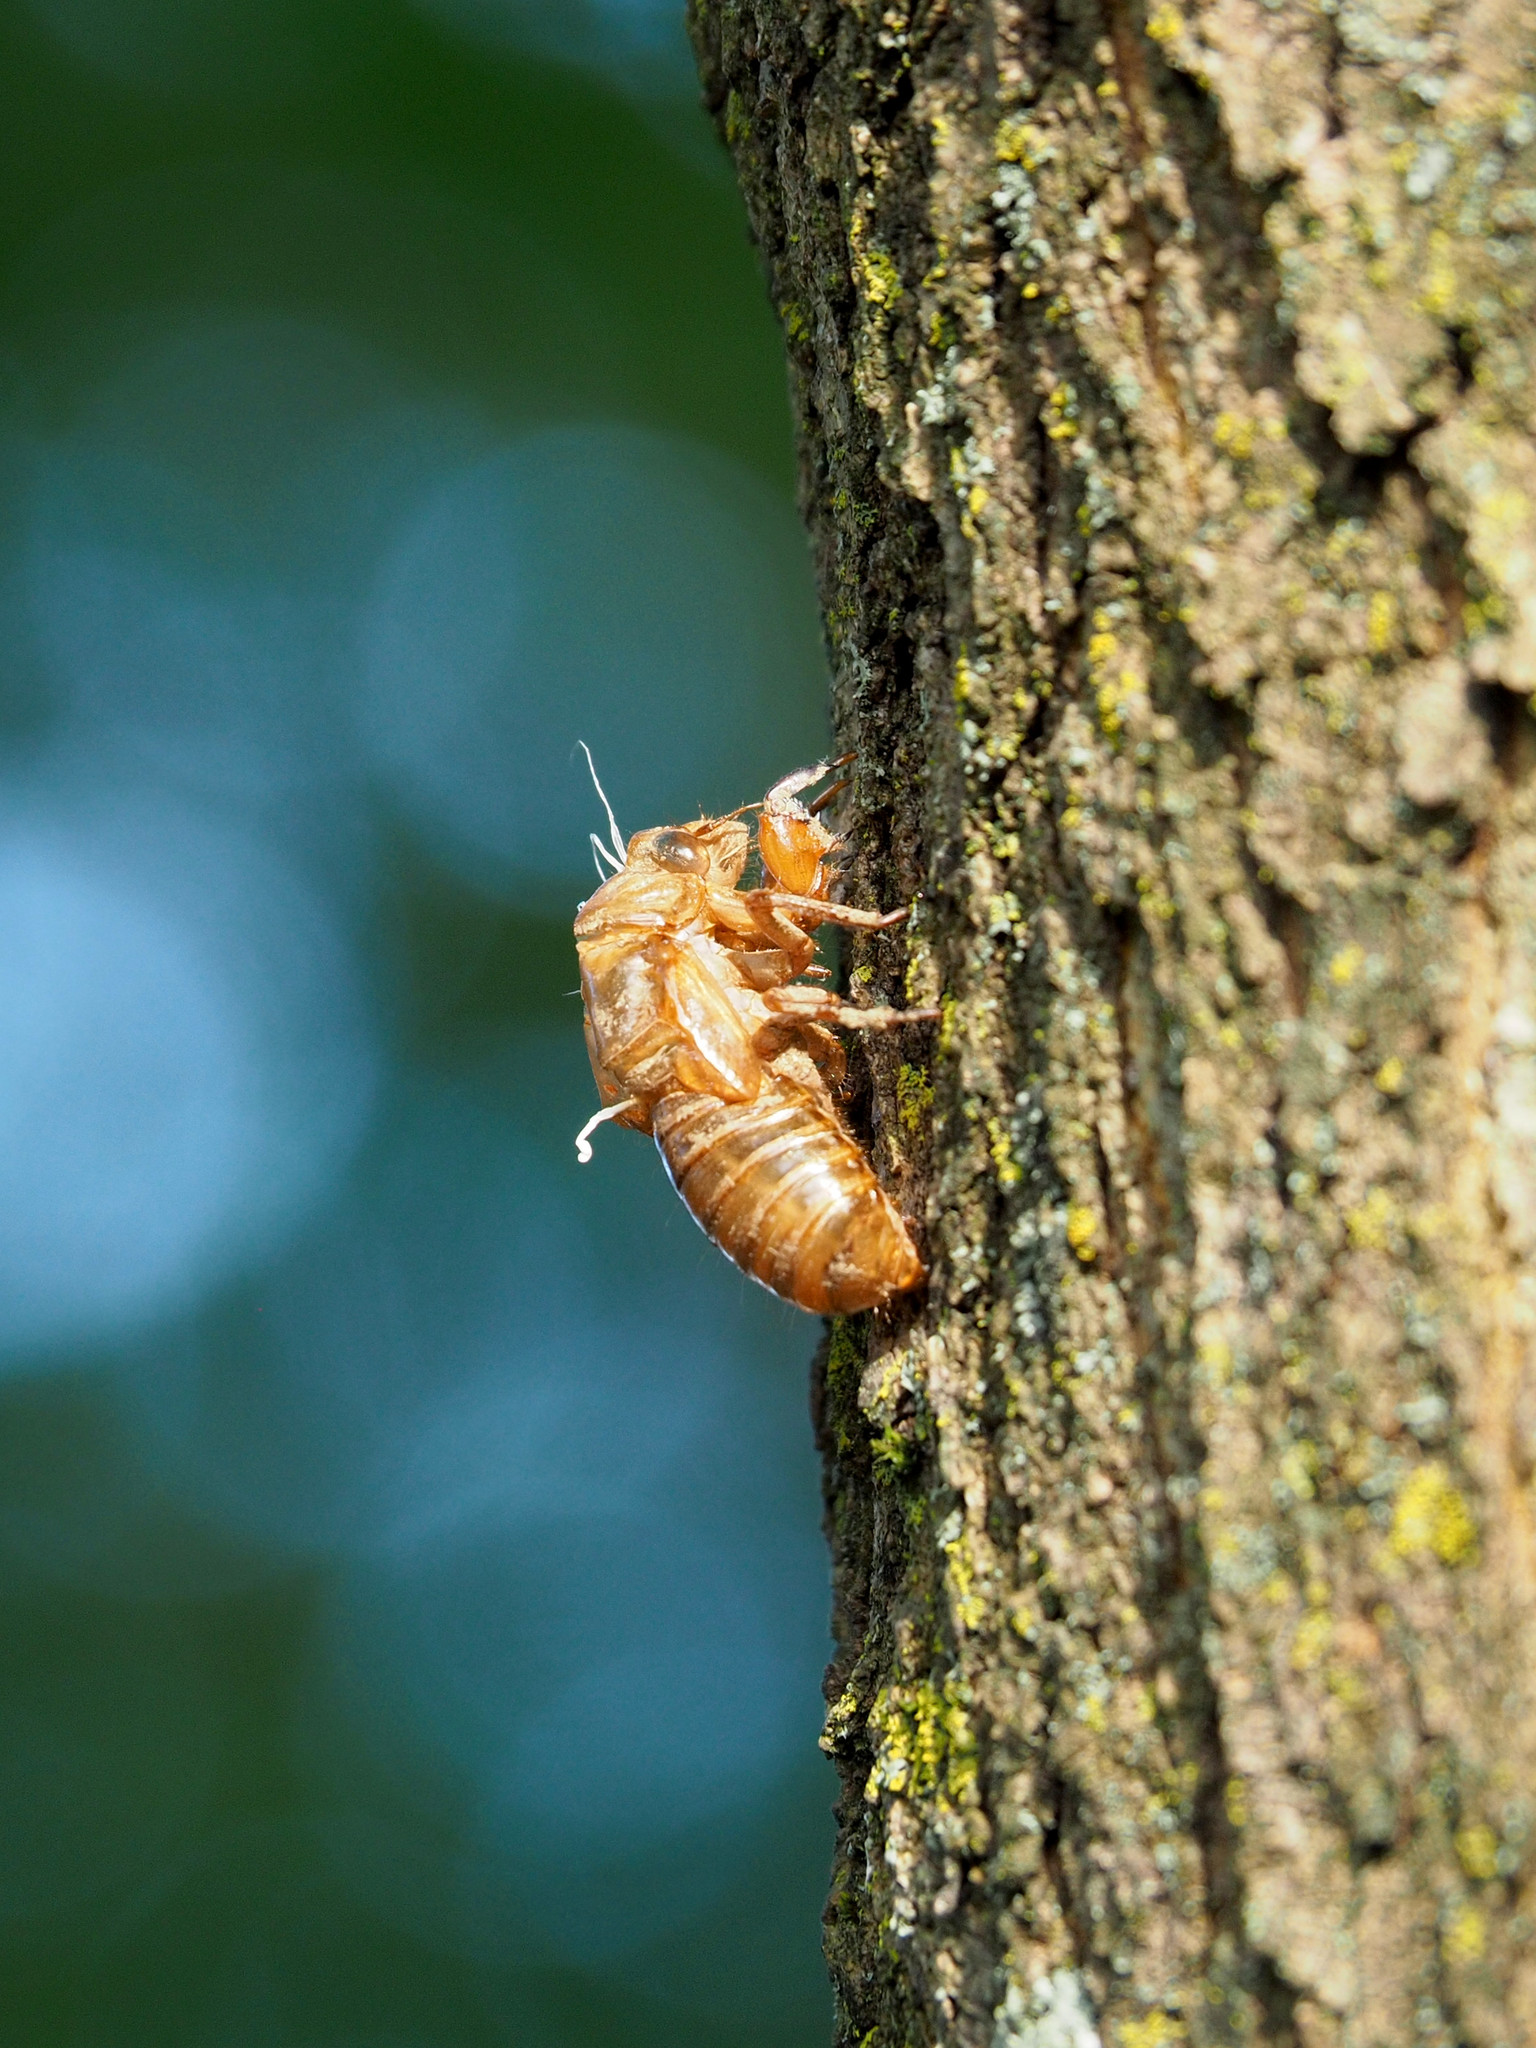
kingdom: Animalia
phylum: Arthropoda
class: Insecta
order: Hemiptera
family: Cicadidae
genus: Magicicada
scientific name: Magicicada
